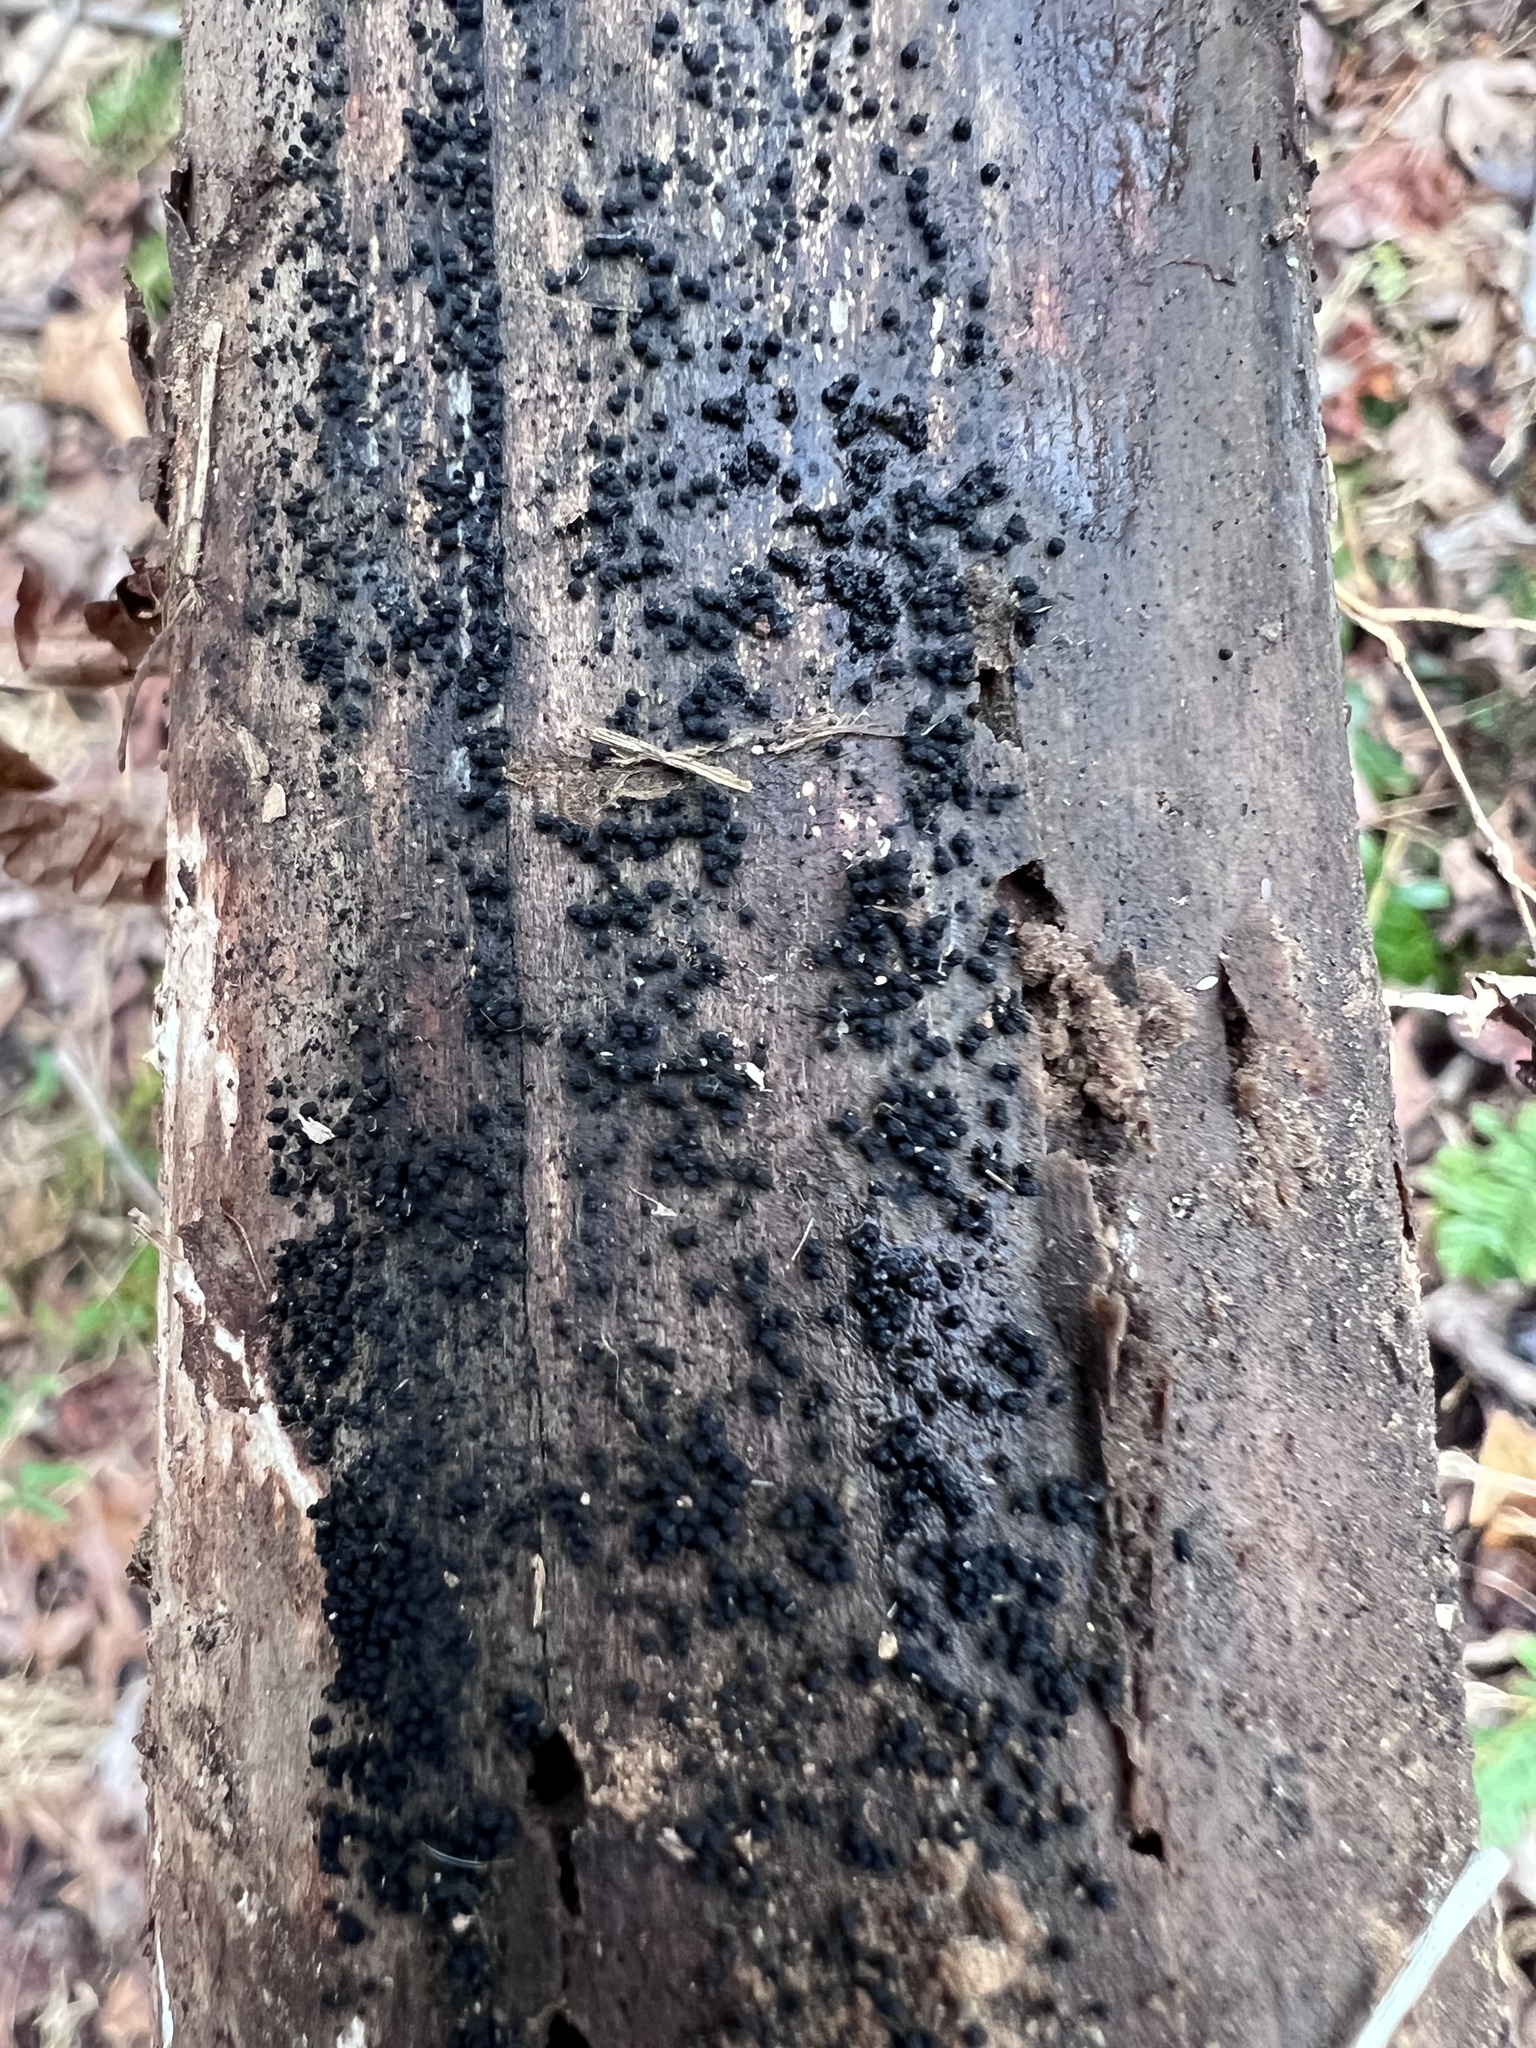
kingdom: Fungi
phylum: Ascomycota
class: Sordariomycetes
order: Coronophorales
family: Bertiaceae
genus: Bertia
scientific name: Bertia moriformis
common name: Wood mulberry
